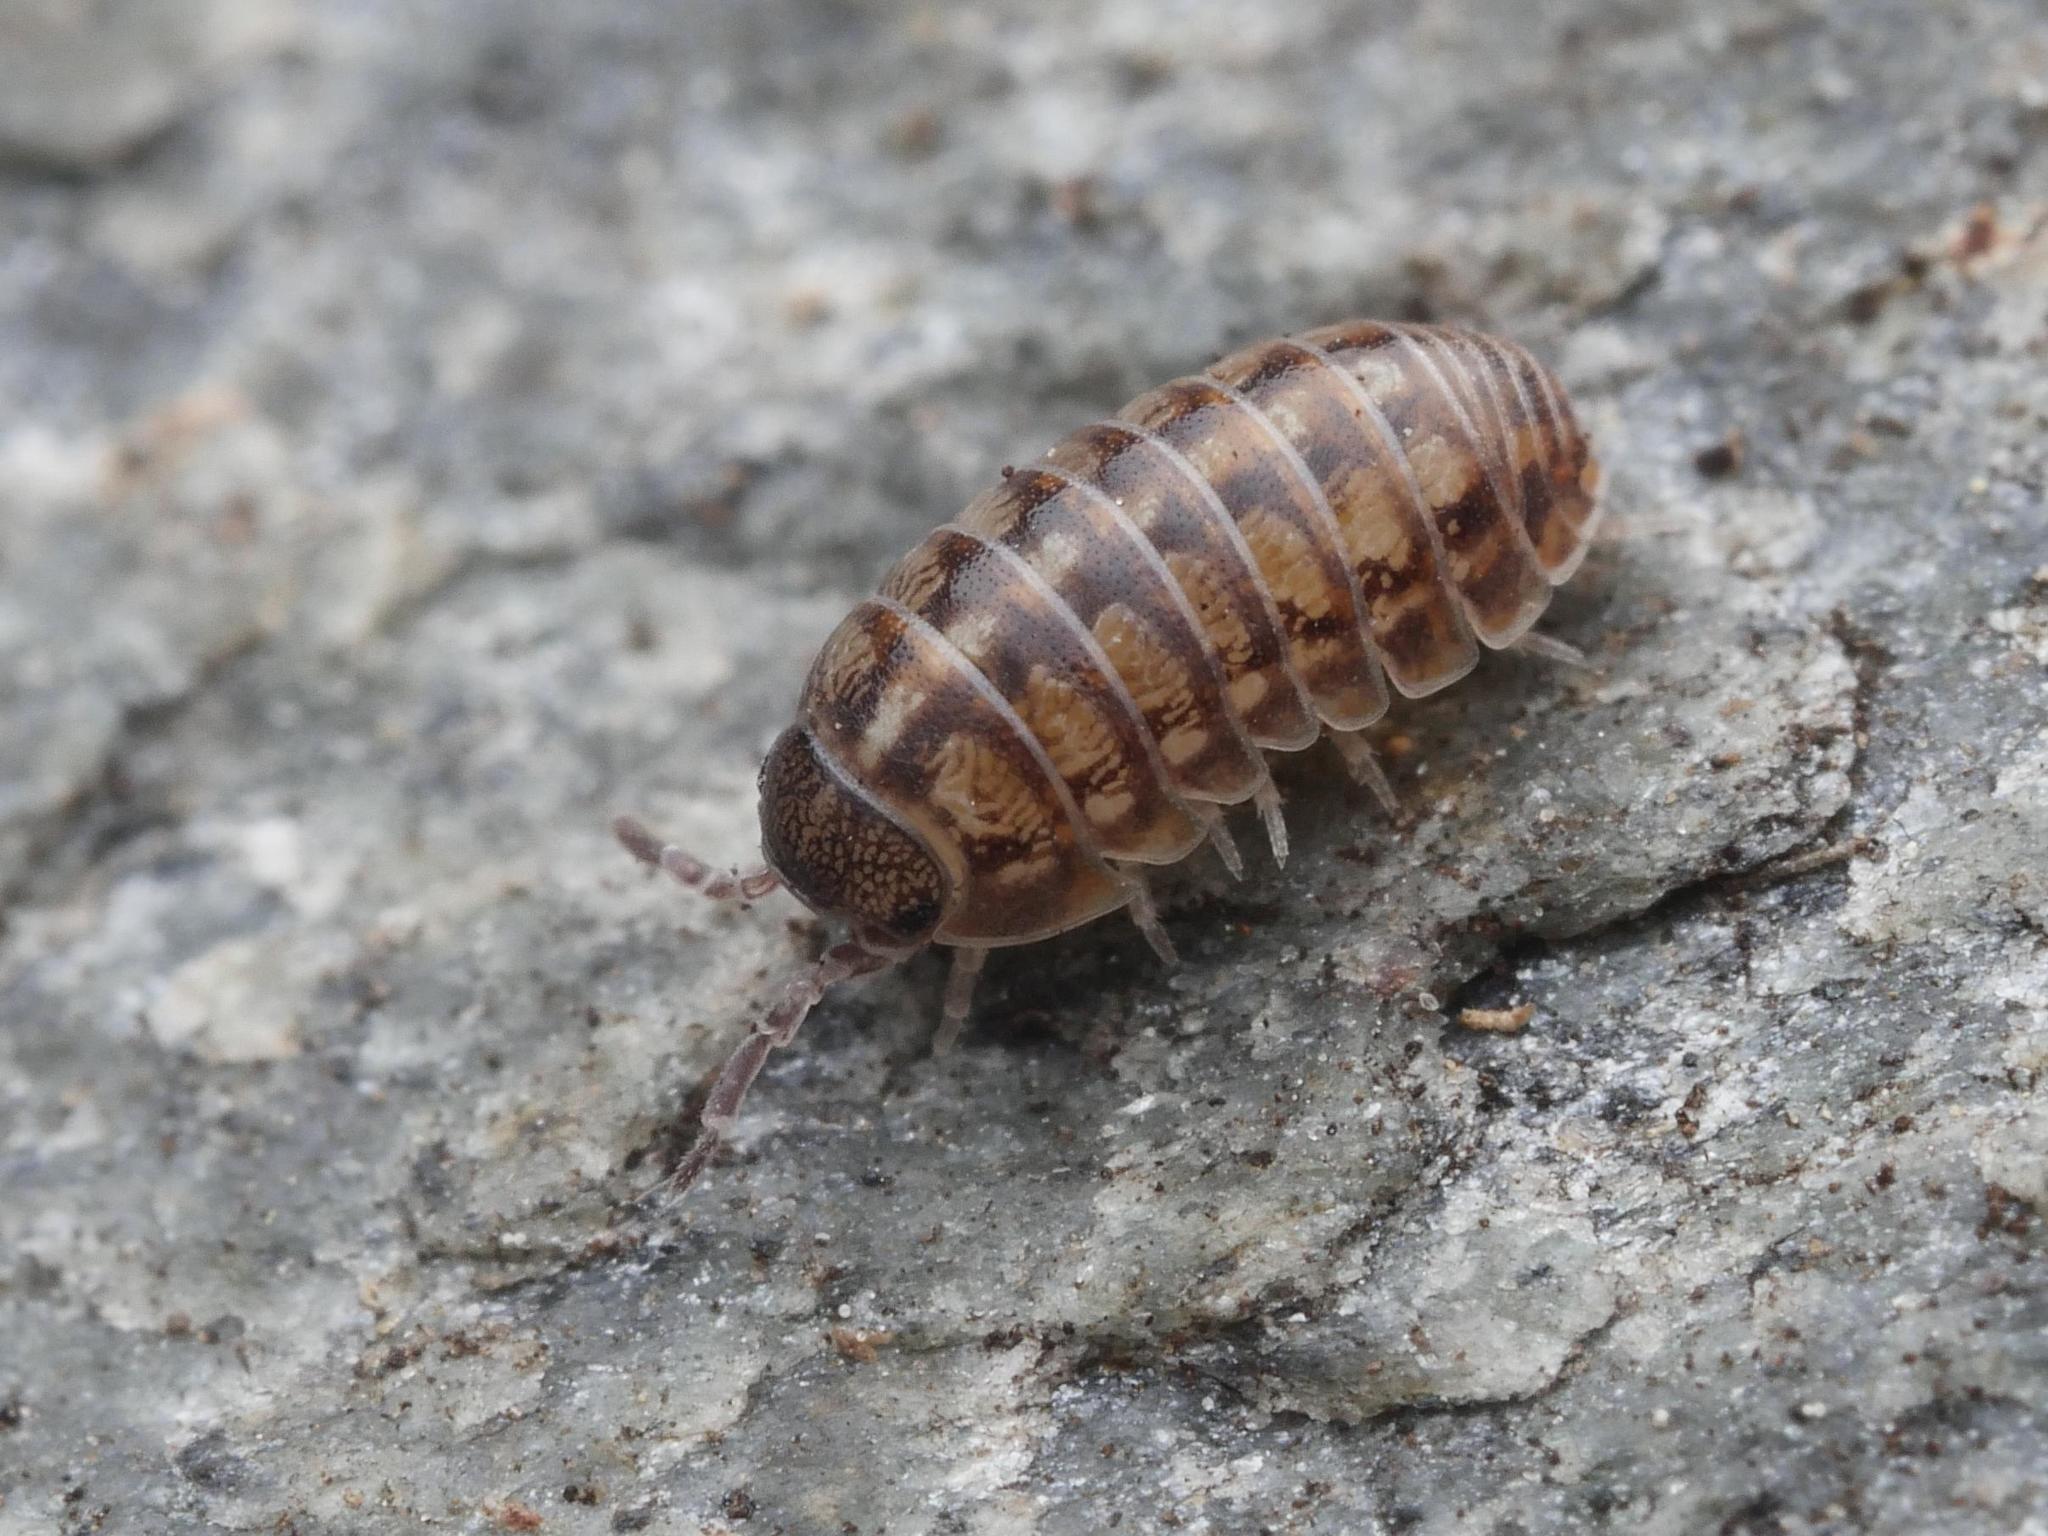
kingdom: Animalia
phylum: Arthropoda
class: Malacostraca
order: Isopoda
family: Armadillidiidae
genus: Armadillidium
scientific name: Armadillidium vulgare
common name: Common pill woodlouse
